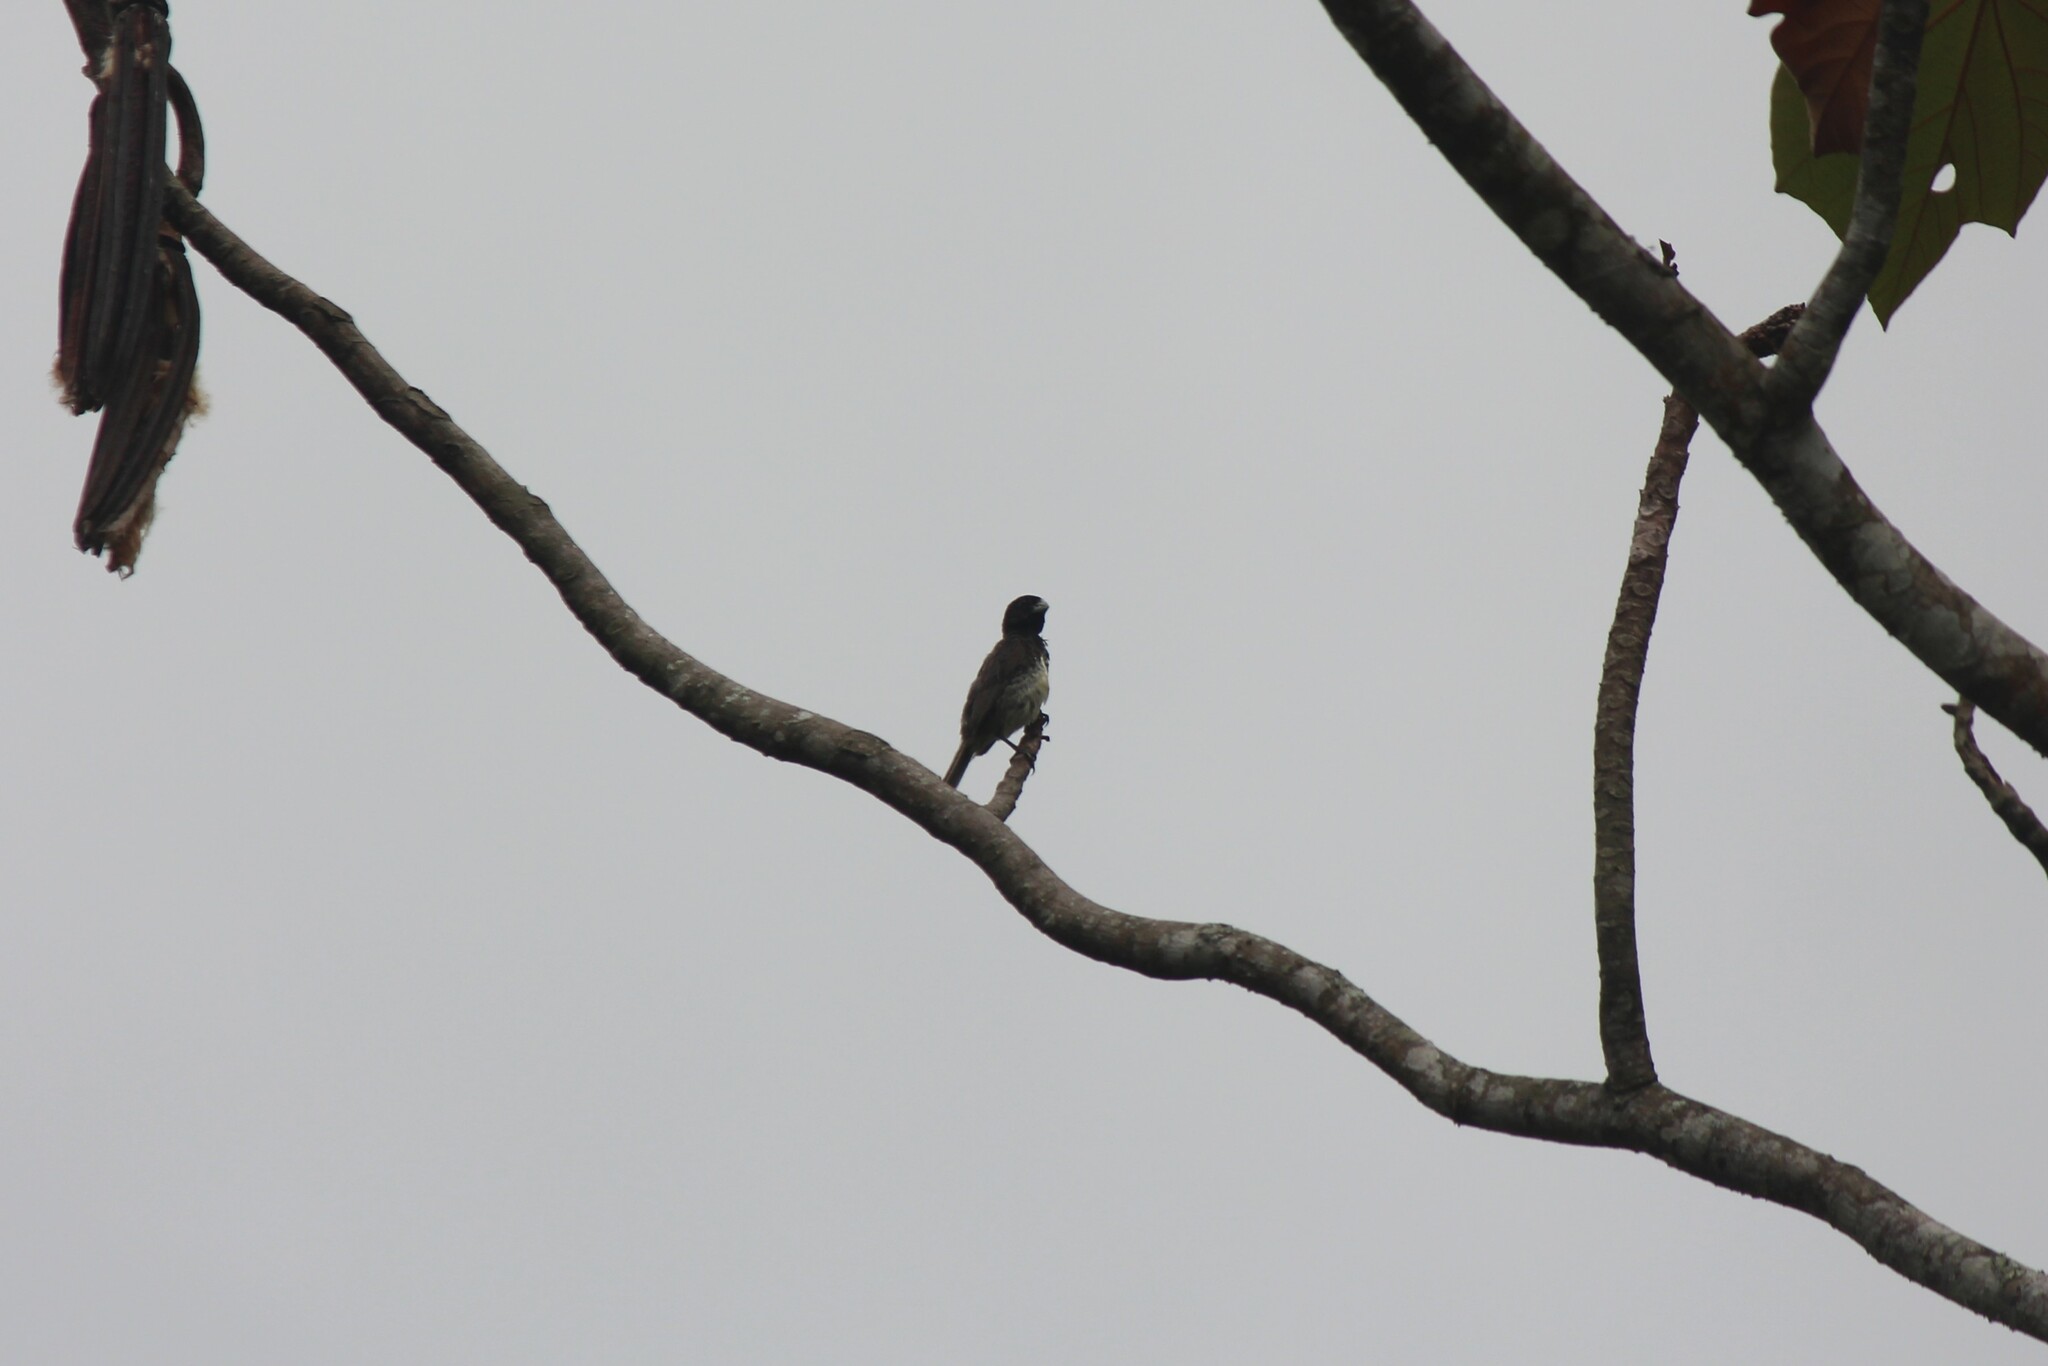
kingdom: Animalia
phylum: Chordata
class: Aves
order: Passeriformes
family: Thraupidae
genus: Sporophila
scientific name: Sporophila nigricollis
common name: Yellow-bellied seedeater
